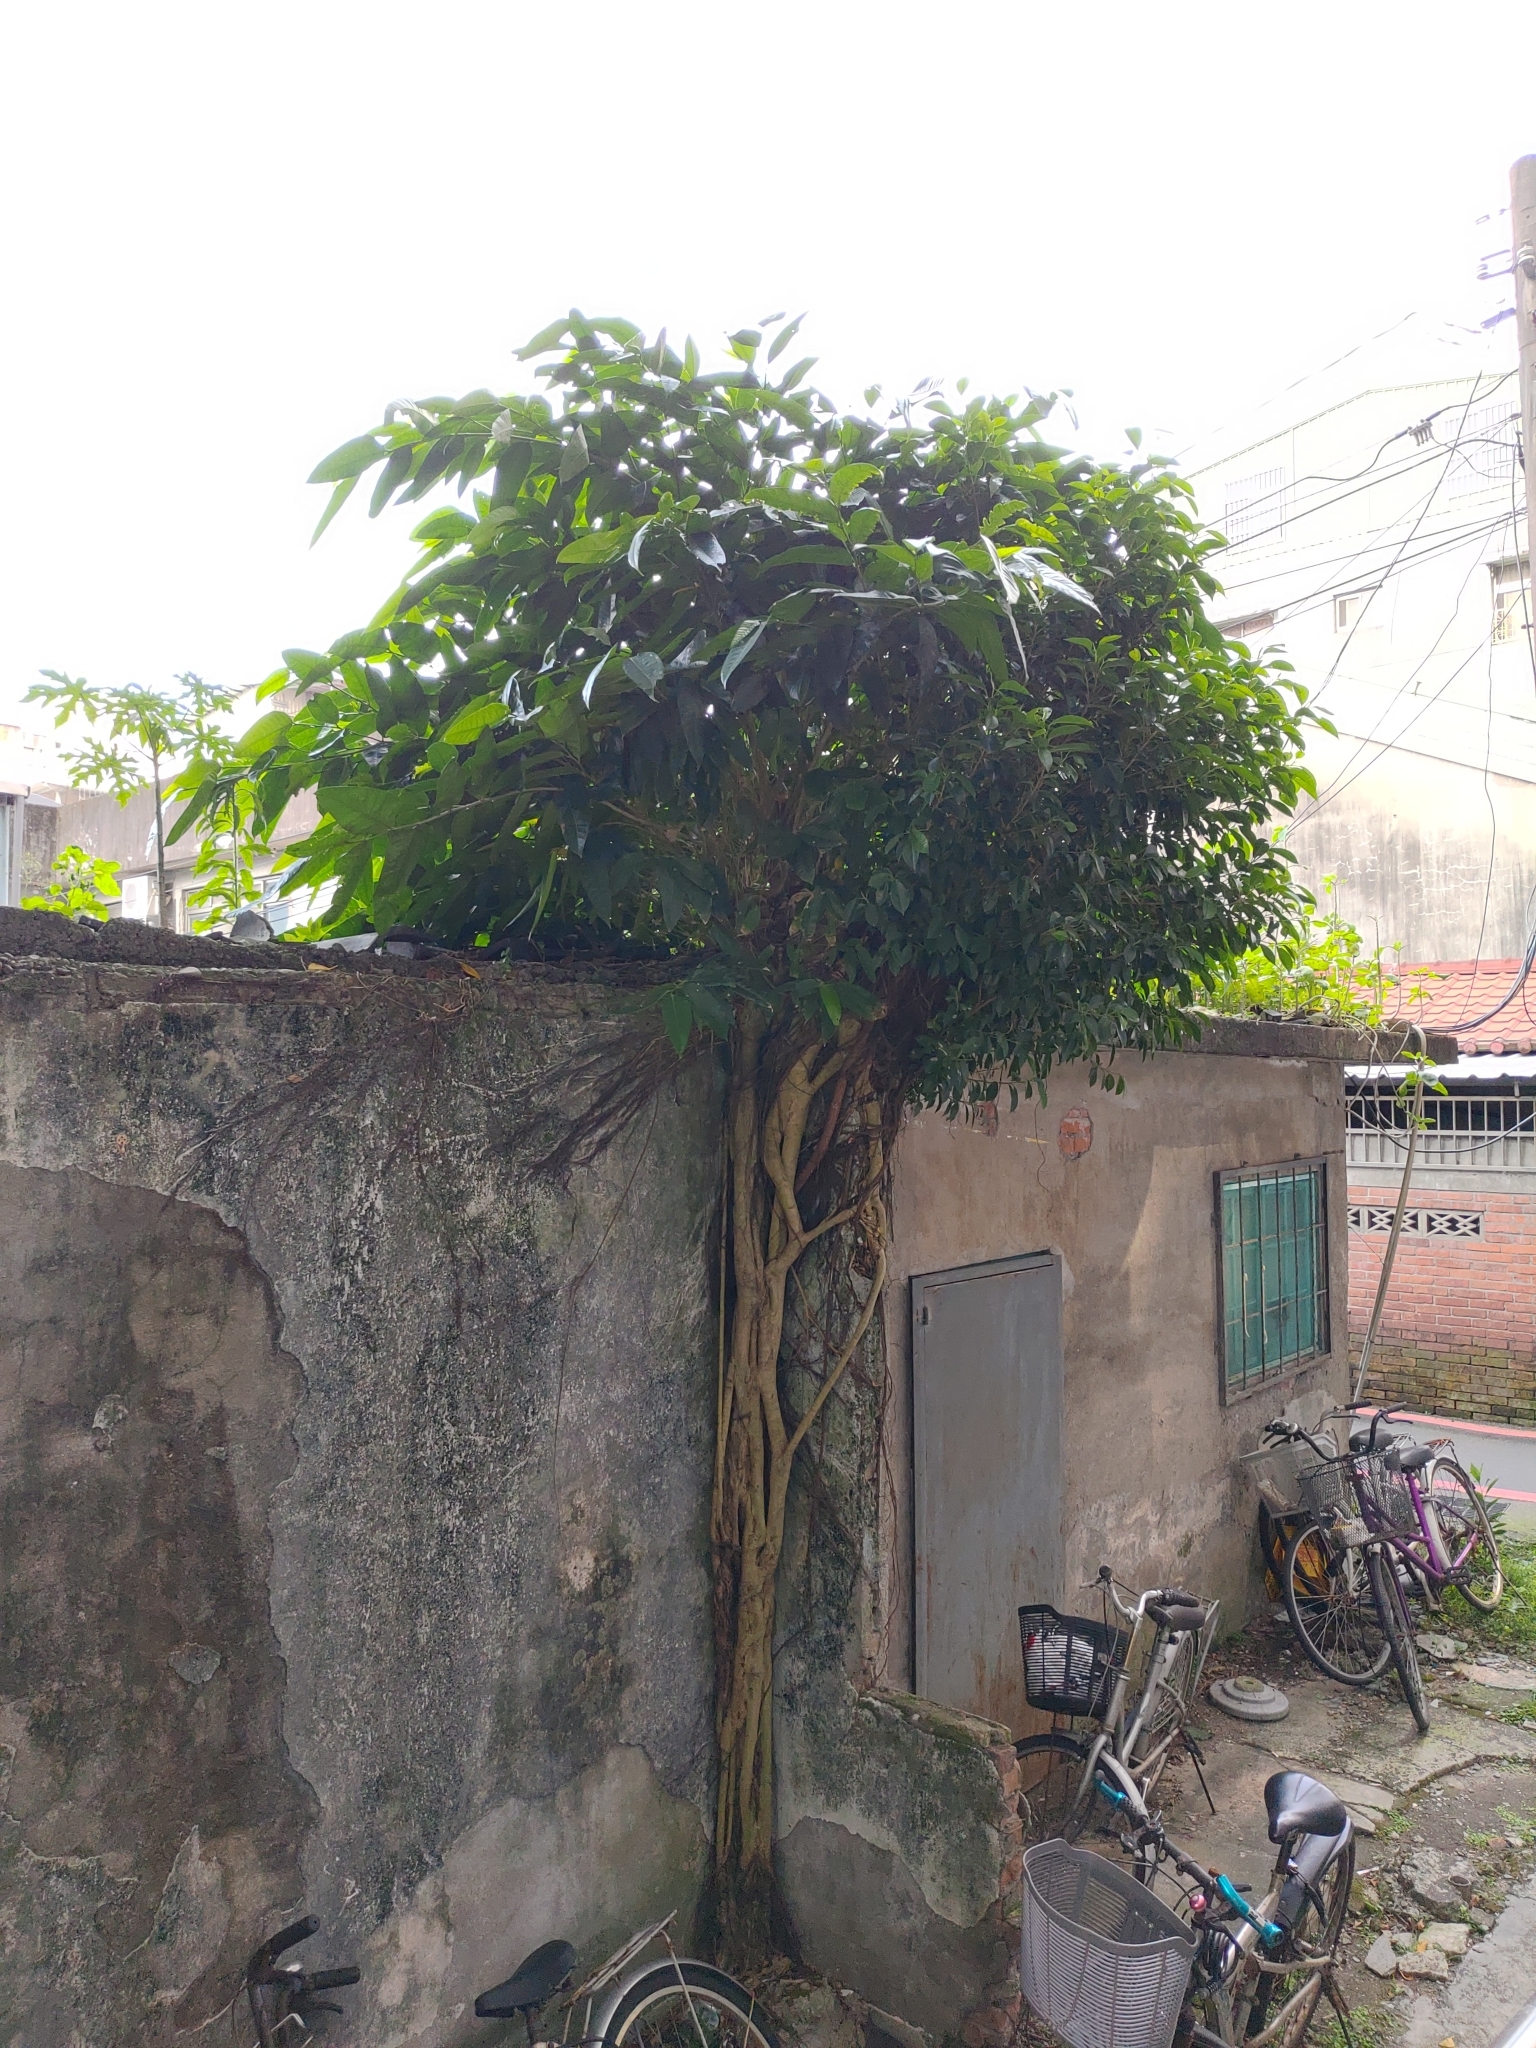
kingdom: Plantae
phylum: Tracheophyta
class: Magnoliopsida
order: Rosales
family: Moraceae
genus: Ficus
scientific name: Ficus virgata
